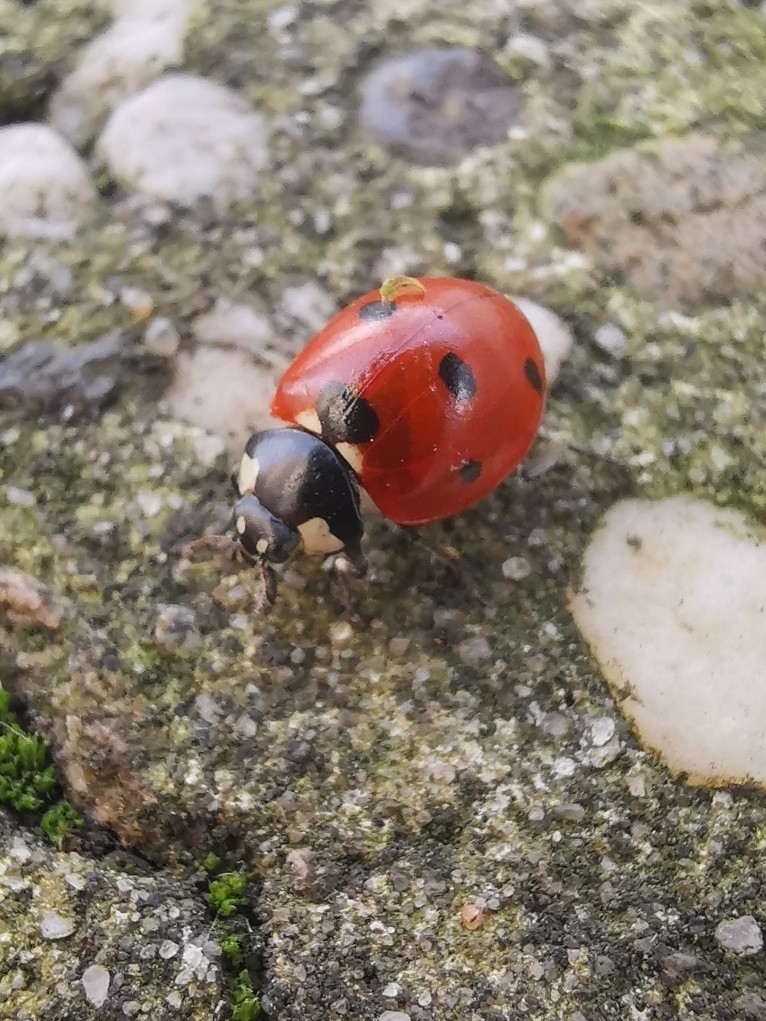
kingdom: Animalia
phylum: Arthropoda
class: Insecta
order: Coleoptera
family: Coccinellidae
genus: Coccinella
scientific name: Coccinella septempunctata
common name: Sevenspotted lady beetle
